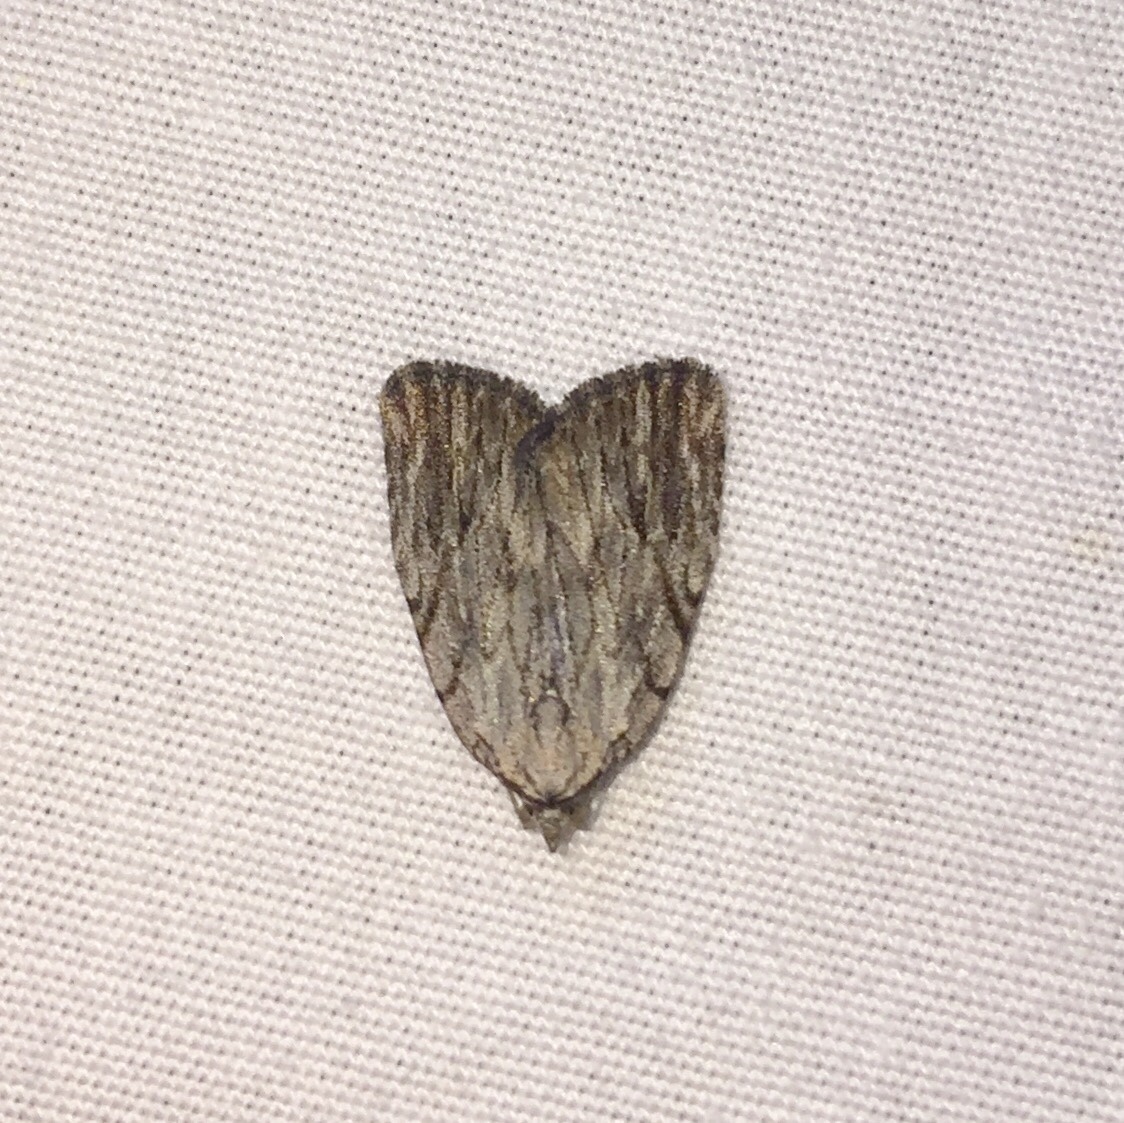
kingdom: Animalia
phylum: Arthropoda
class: Insecta
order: Lepidoptera
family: Noctuidae
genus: Balsa
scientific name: Balsa tristrigella
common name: Three-lined balsa moth
